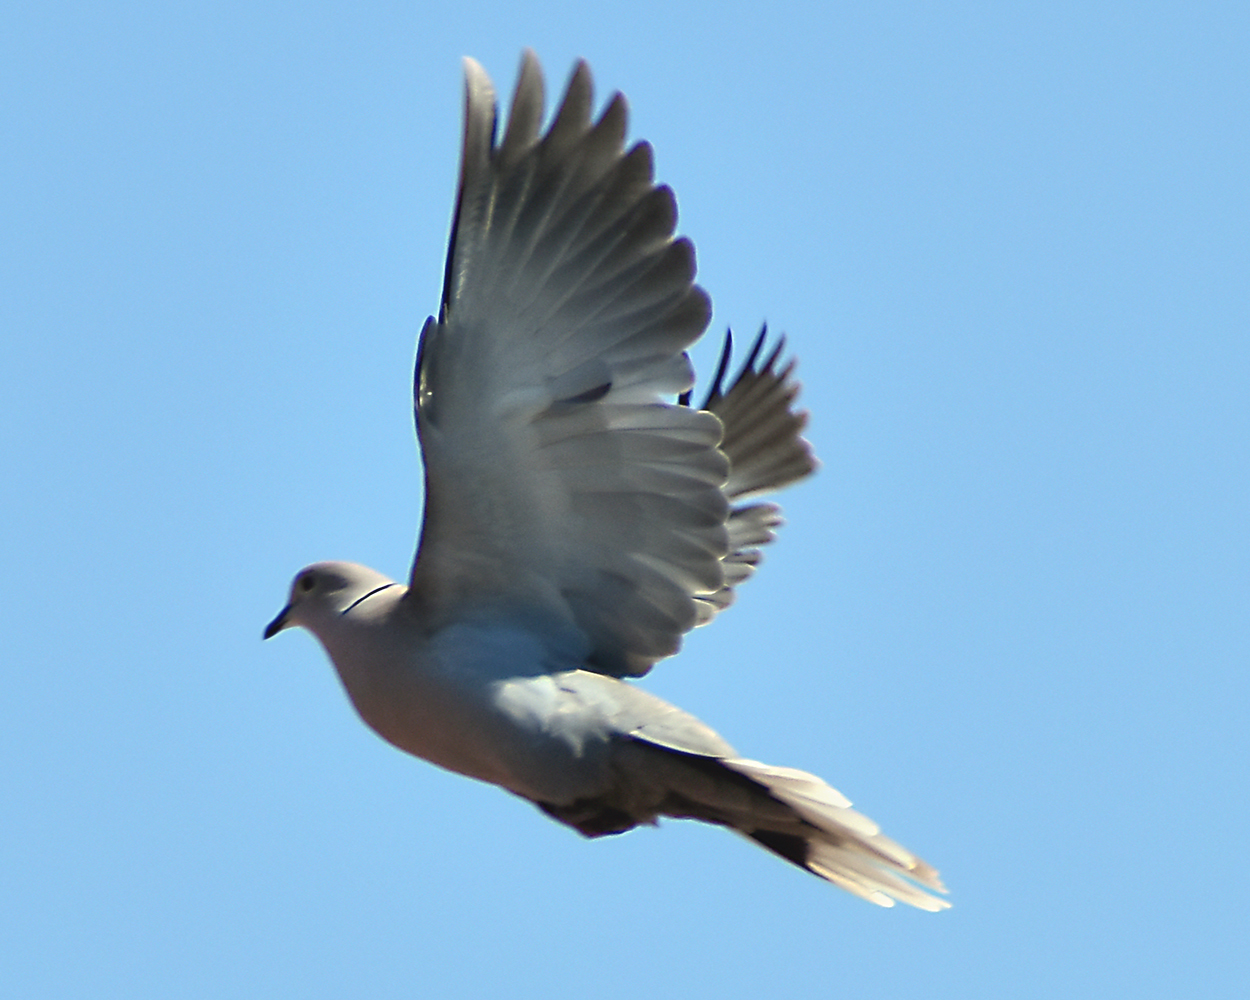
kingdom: Animalia
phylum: Chordata
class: Aves
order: Columbiformes
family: Columbidae
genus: Streptopelia
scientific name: Streptopelia decaocto
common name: Eurasian collared dove
